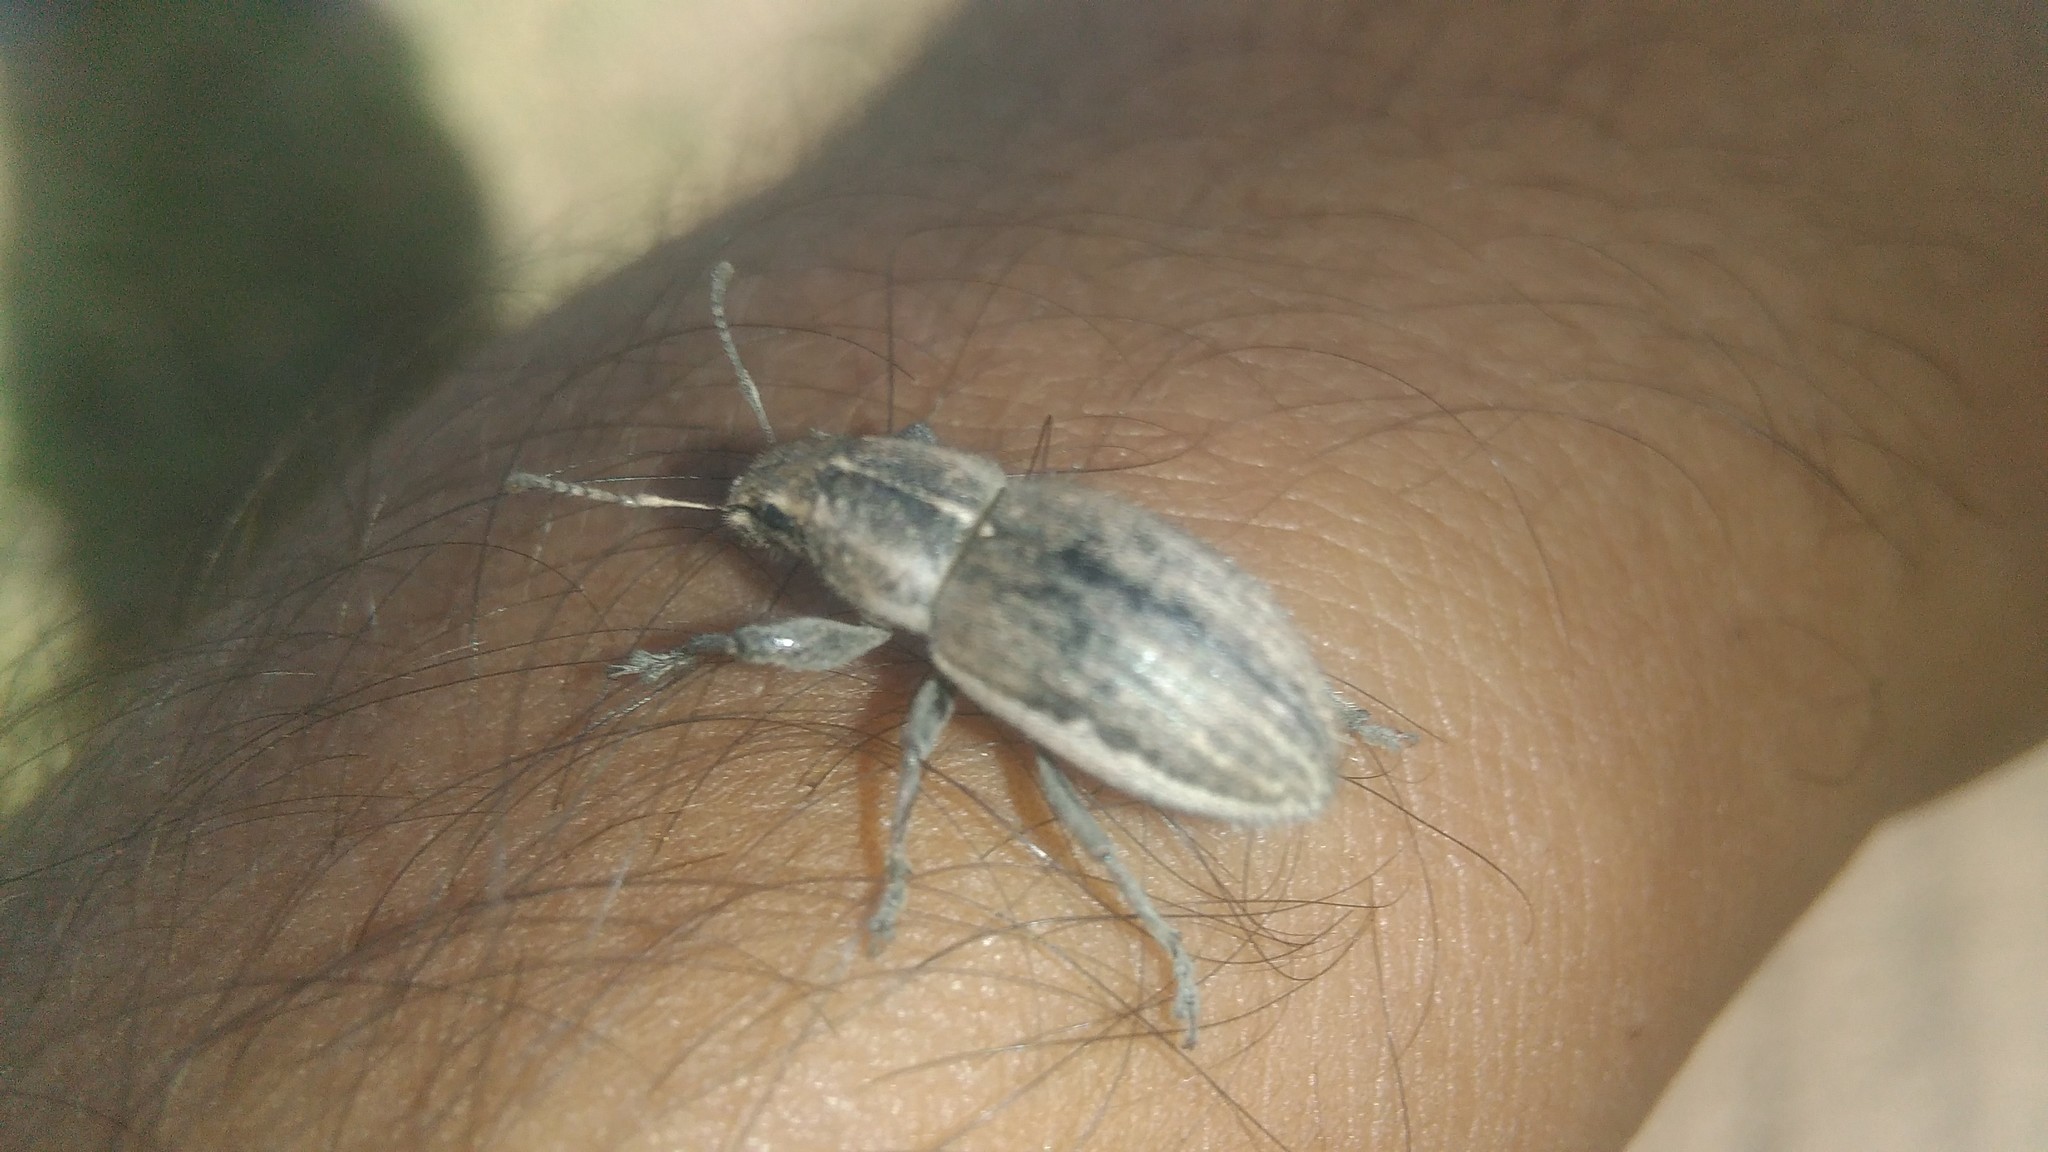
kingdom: Animalia
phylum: Arthropoda
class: Insecta
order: Coleoptera
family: Curculionidae
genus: Naupactus
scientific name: Naupactus leucoloma
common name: Whitefringed beetle
